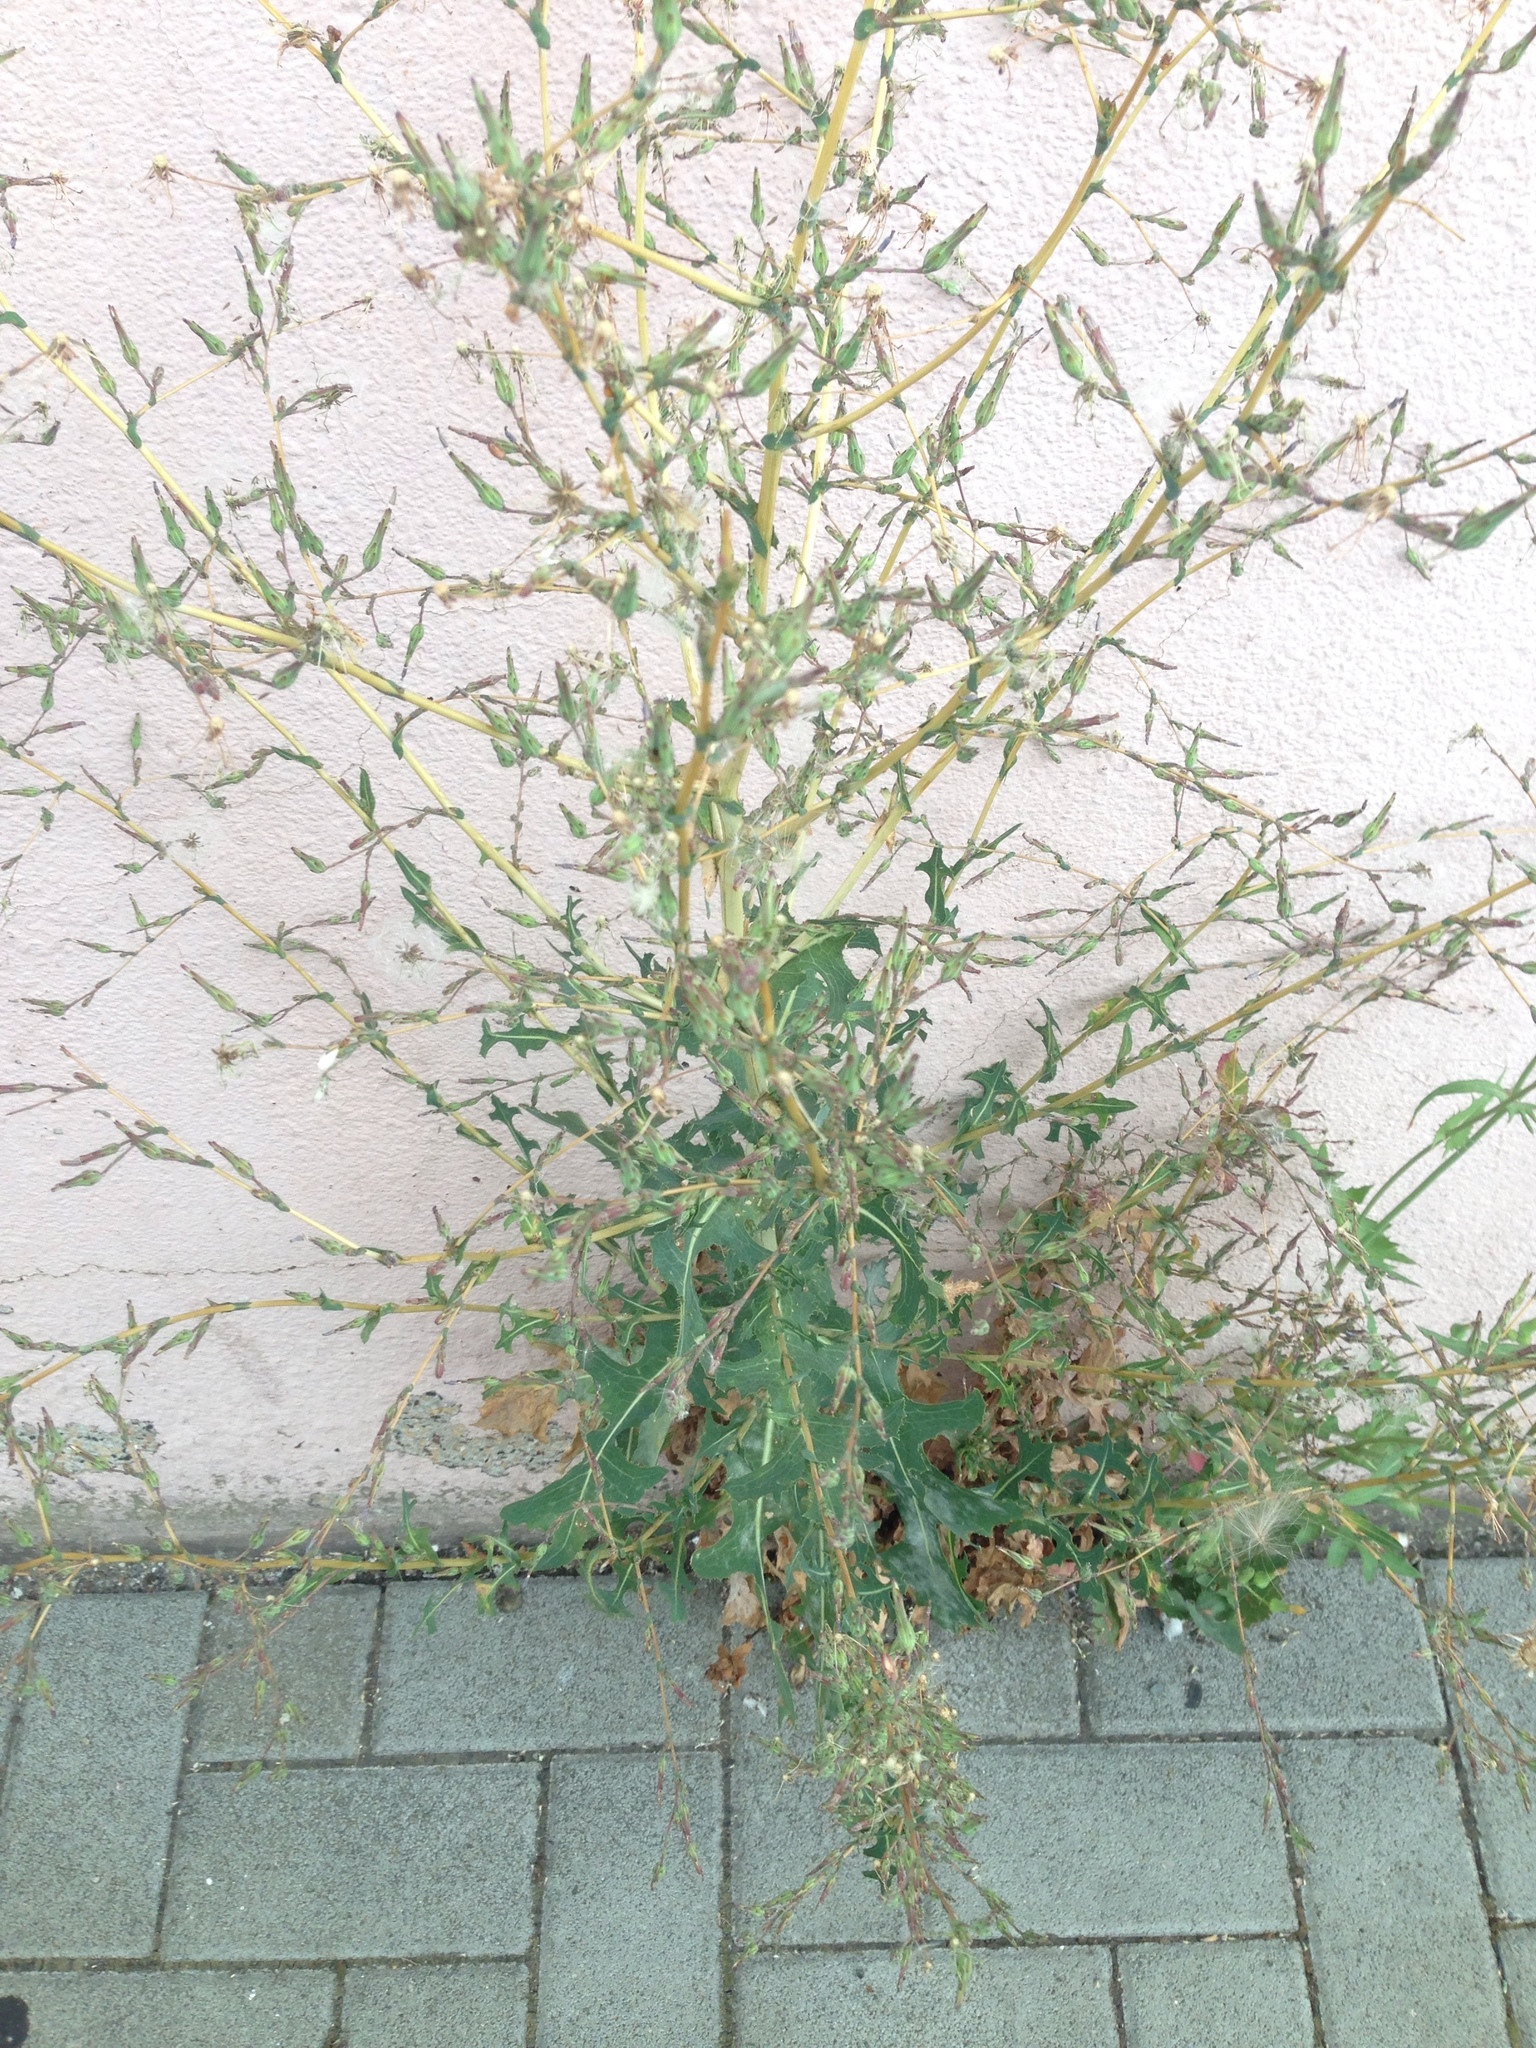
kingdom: Plantae
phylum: Tracheophyta
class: Magnoliopsida
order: Asterales
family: Asteraceae
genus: Lactuca
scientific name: Lactuca serriola
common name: Prickly lettuce
